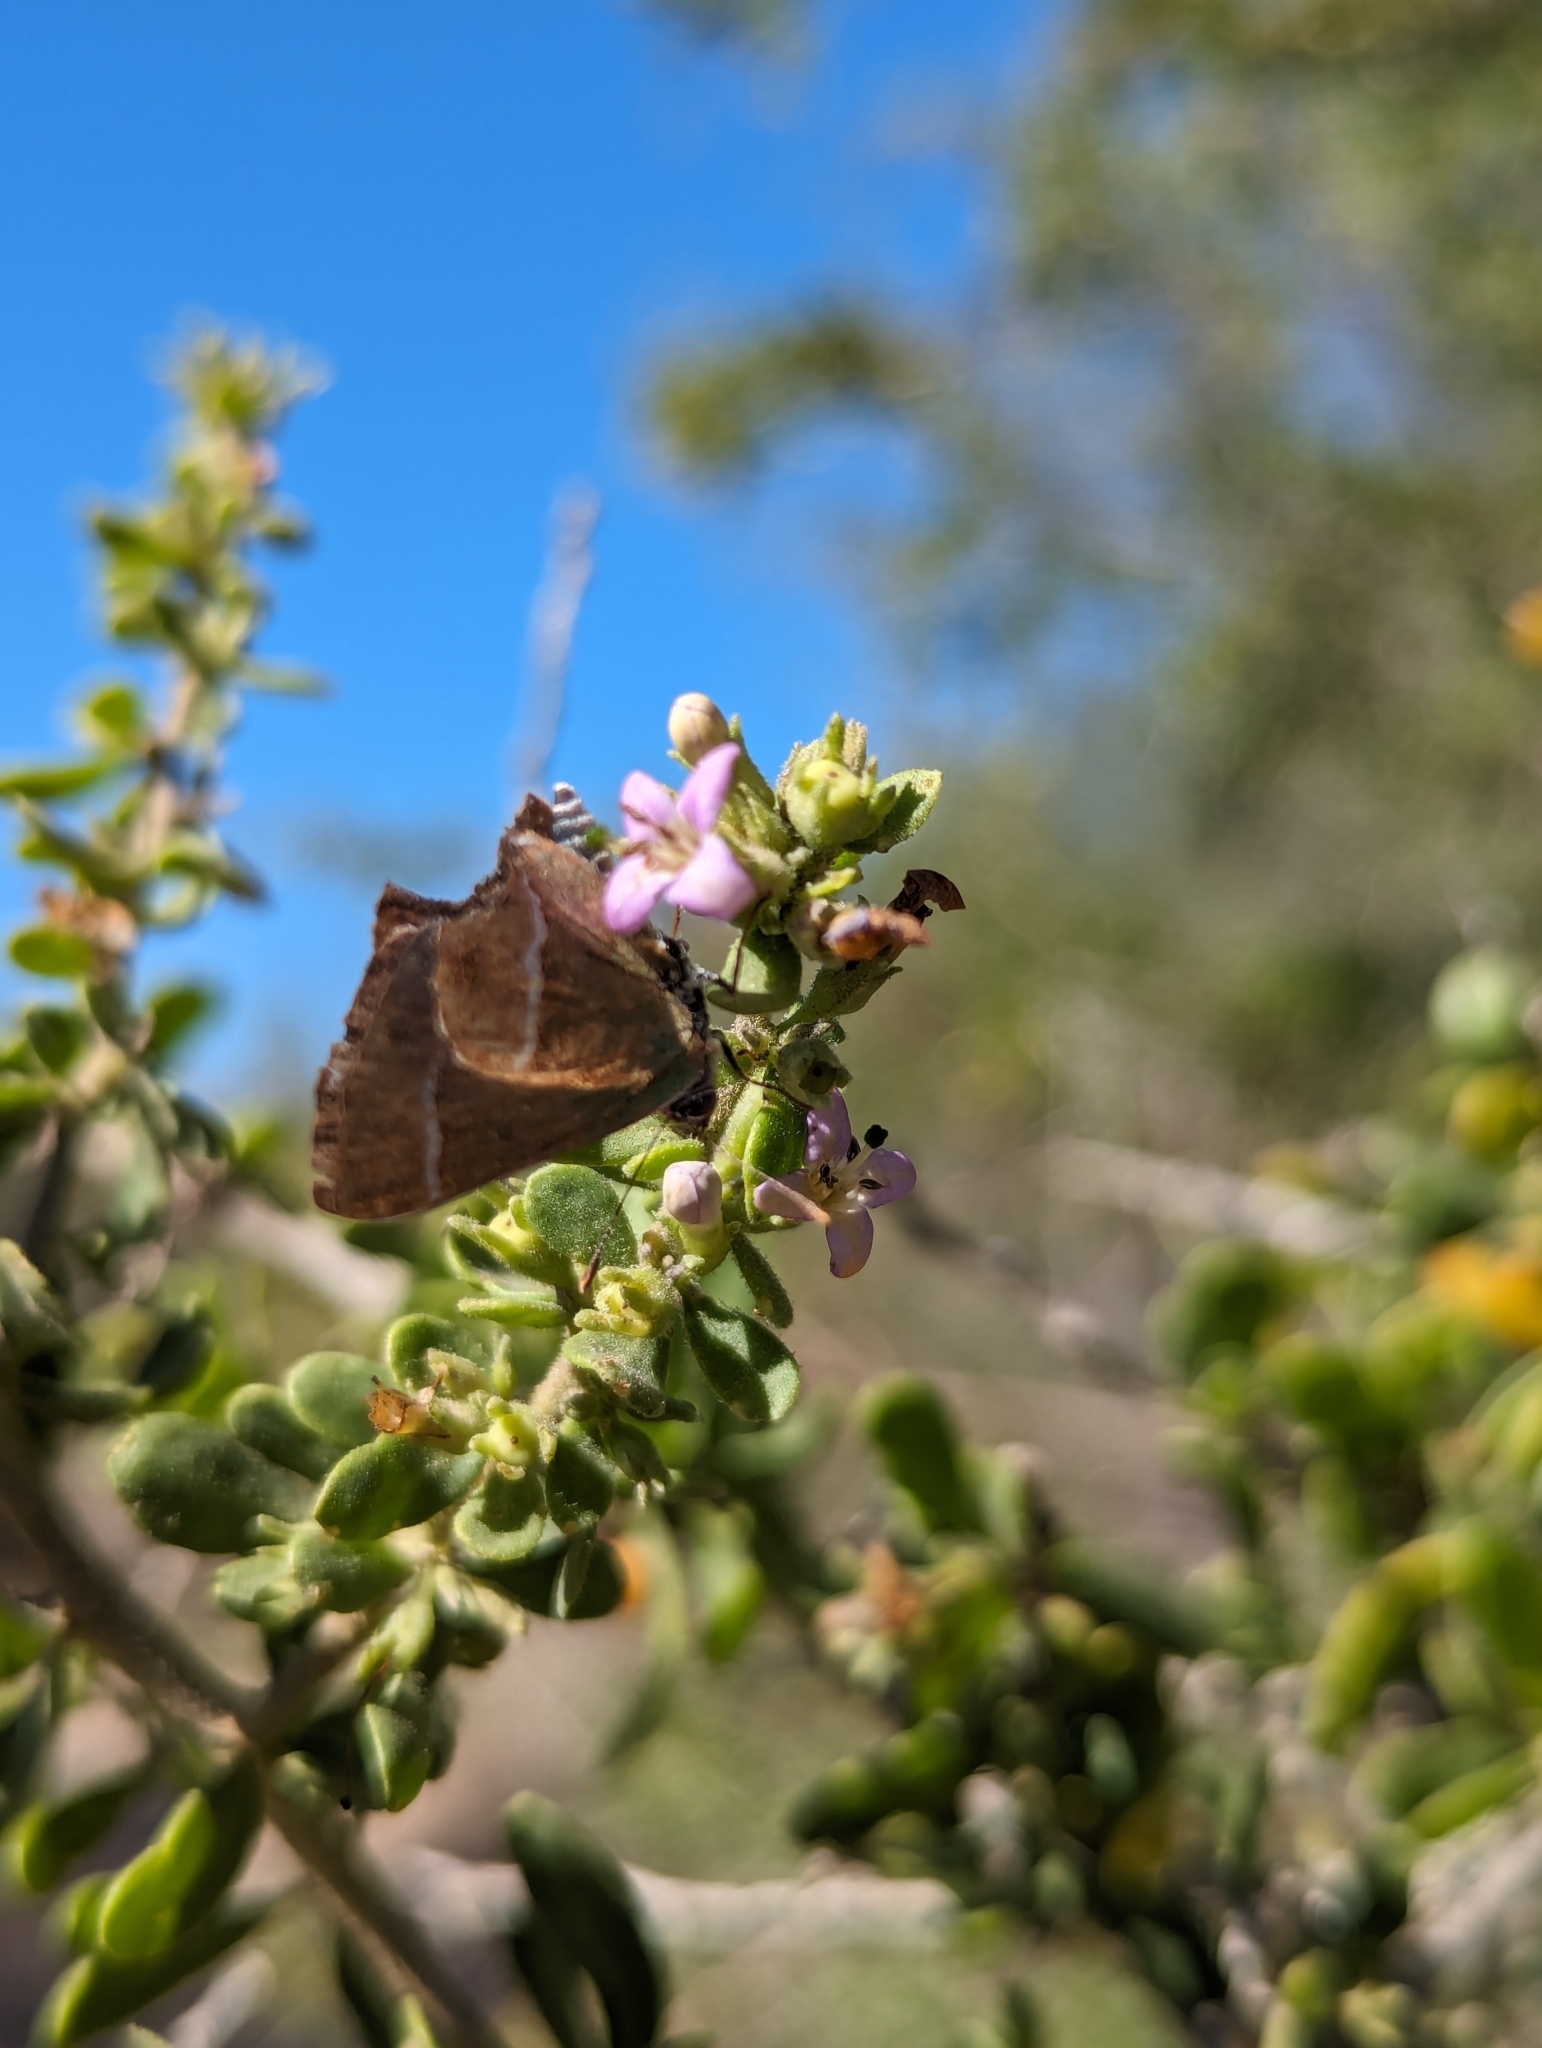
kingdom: Animalia
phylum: Arthropoda
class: Insecta
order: Lepidoptera
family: Lycaenidae
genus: Chlorostrymon
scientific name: Chlorostrymon simaethis
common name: Silver-banded hairstreak
